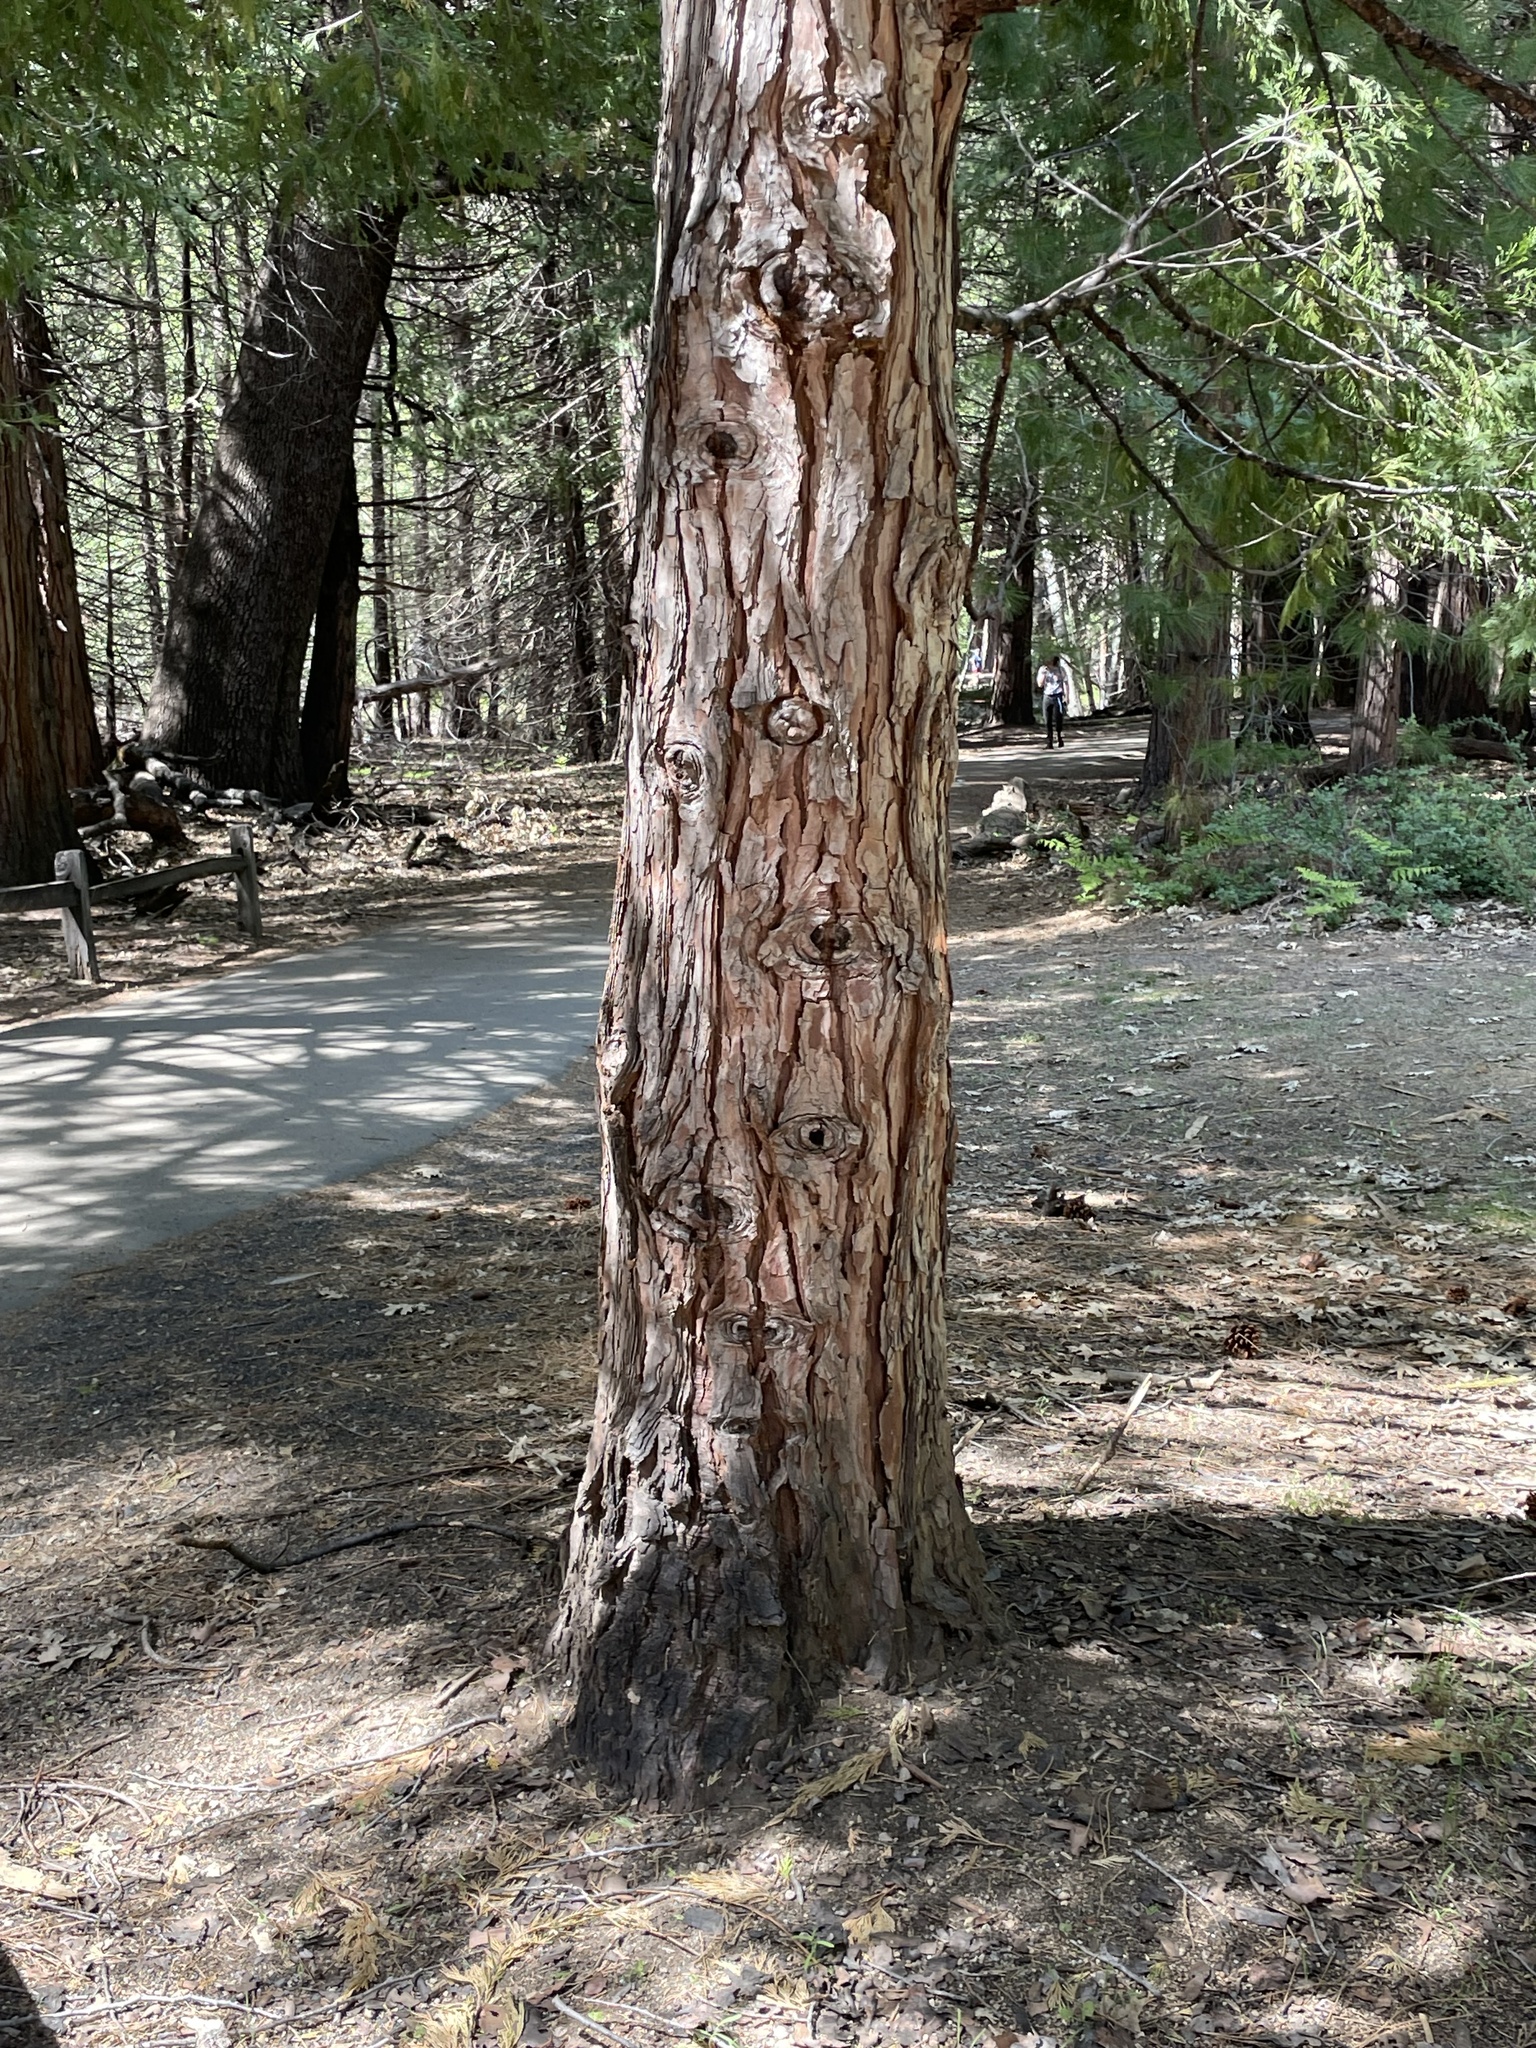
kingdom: Plantae
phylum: Tracheophyta
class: Pinopsida
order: Pinales
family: Cupressaceae
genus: Calocedrus
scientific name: Calocedrus decurrens
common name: Californian incense-cedar
